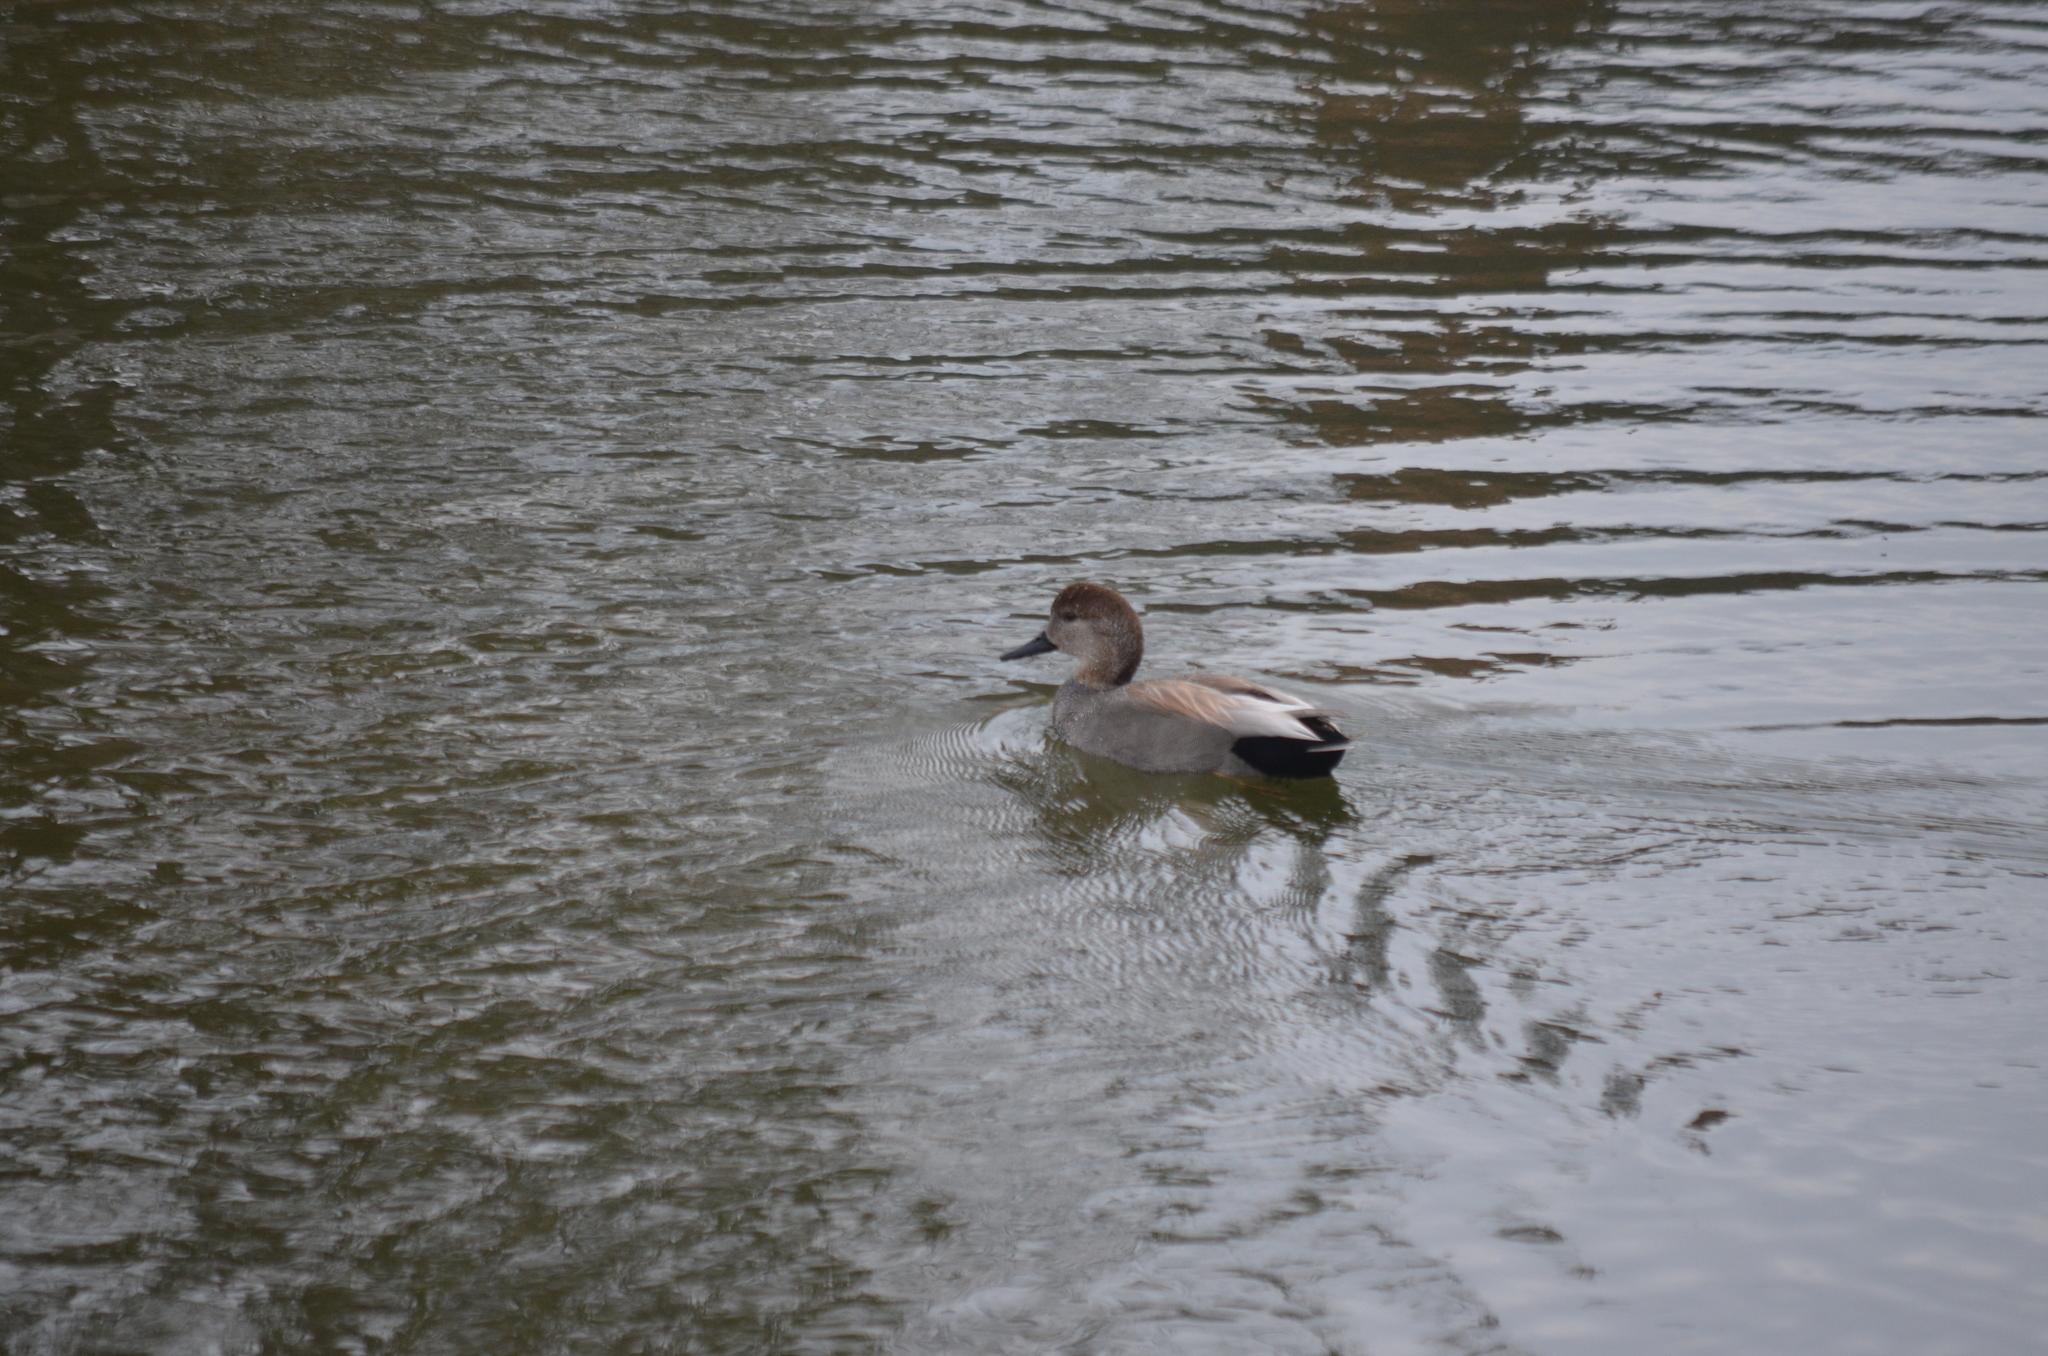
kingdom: Animalia
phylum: Chordata
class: Aves
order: Anseriformes
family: Anatidae
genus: Mareca
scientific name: Mareca strepera
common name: Gadwall
